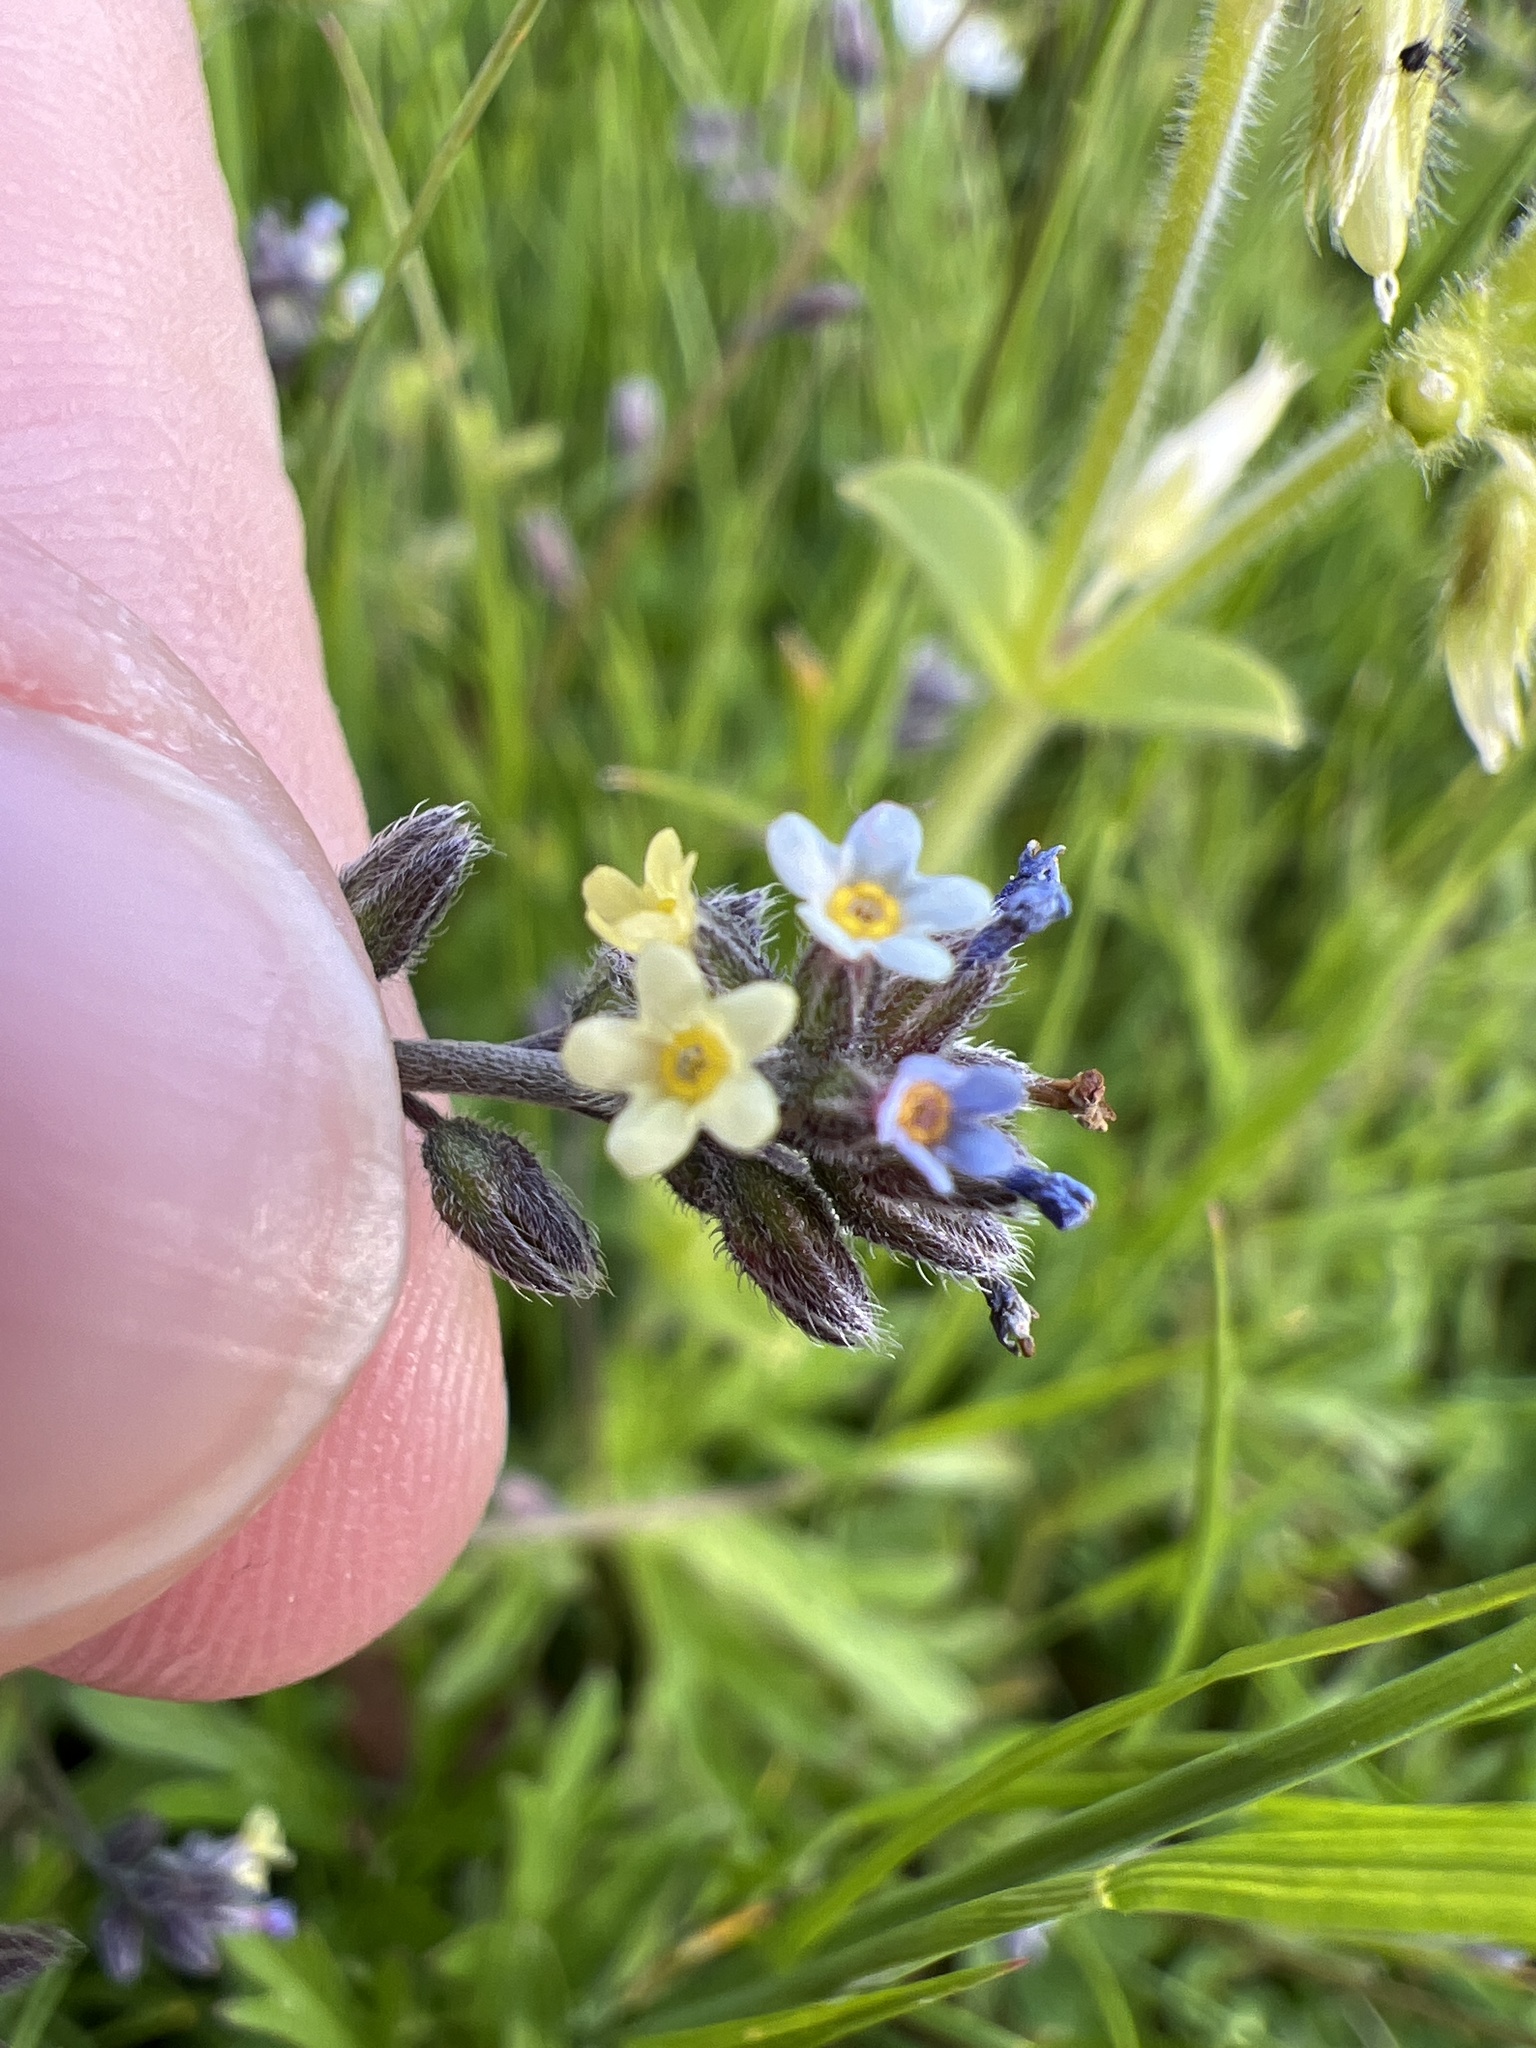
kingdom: Plantae
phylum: Tracheophyta
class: Magnoliopsida
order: Boraginales
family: Boraginaceae
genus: Myosotis
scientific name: Myosotis discolor
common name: Changing forget-me-not
